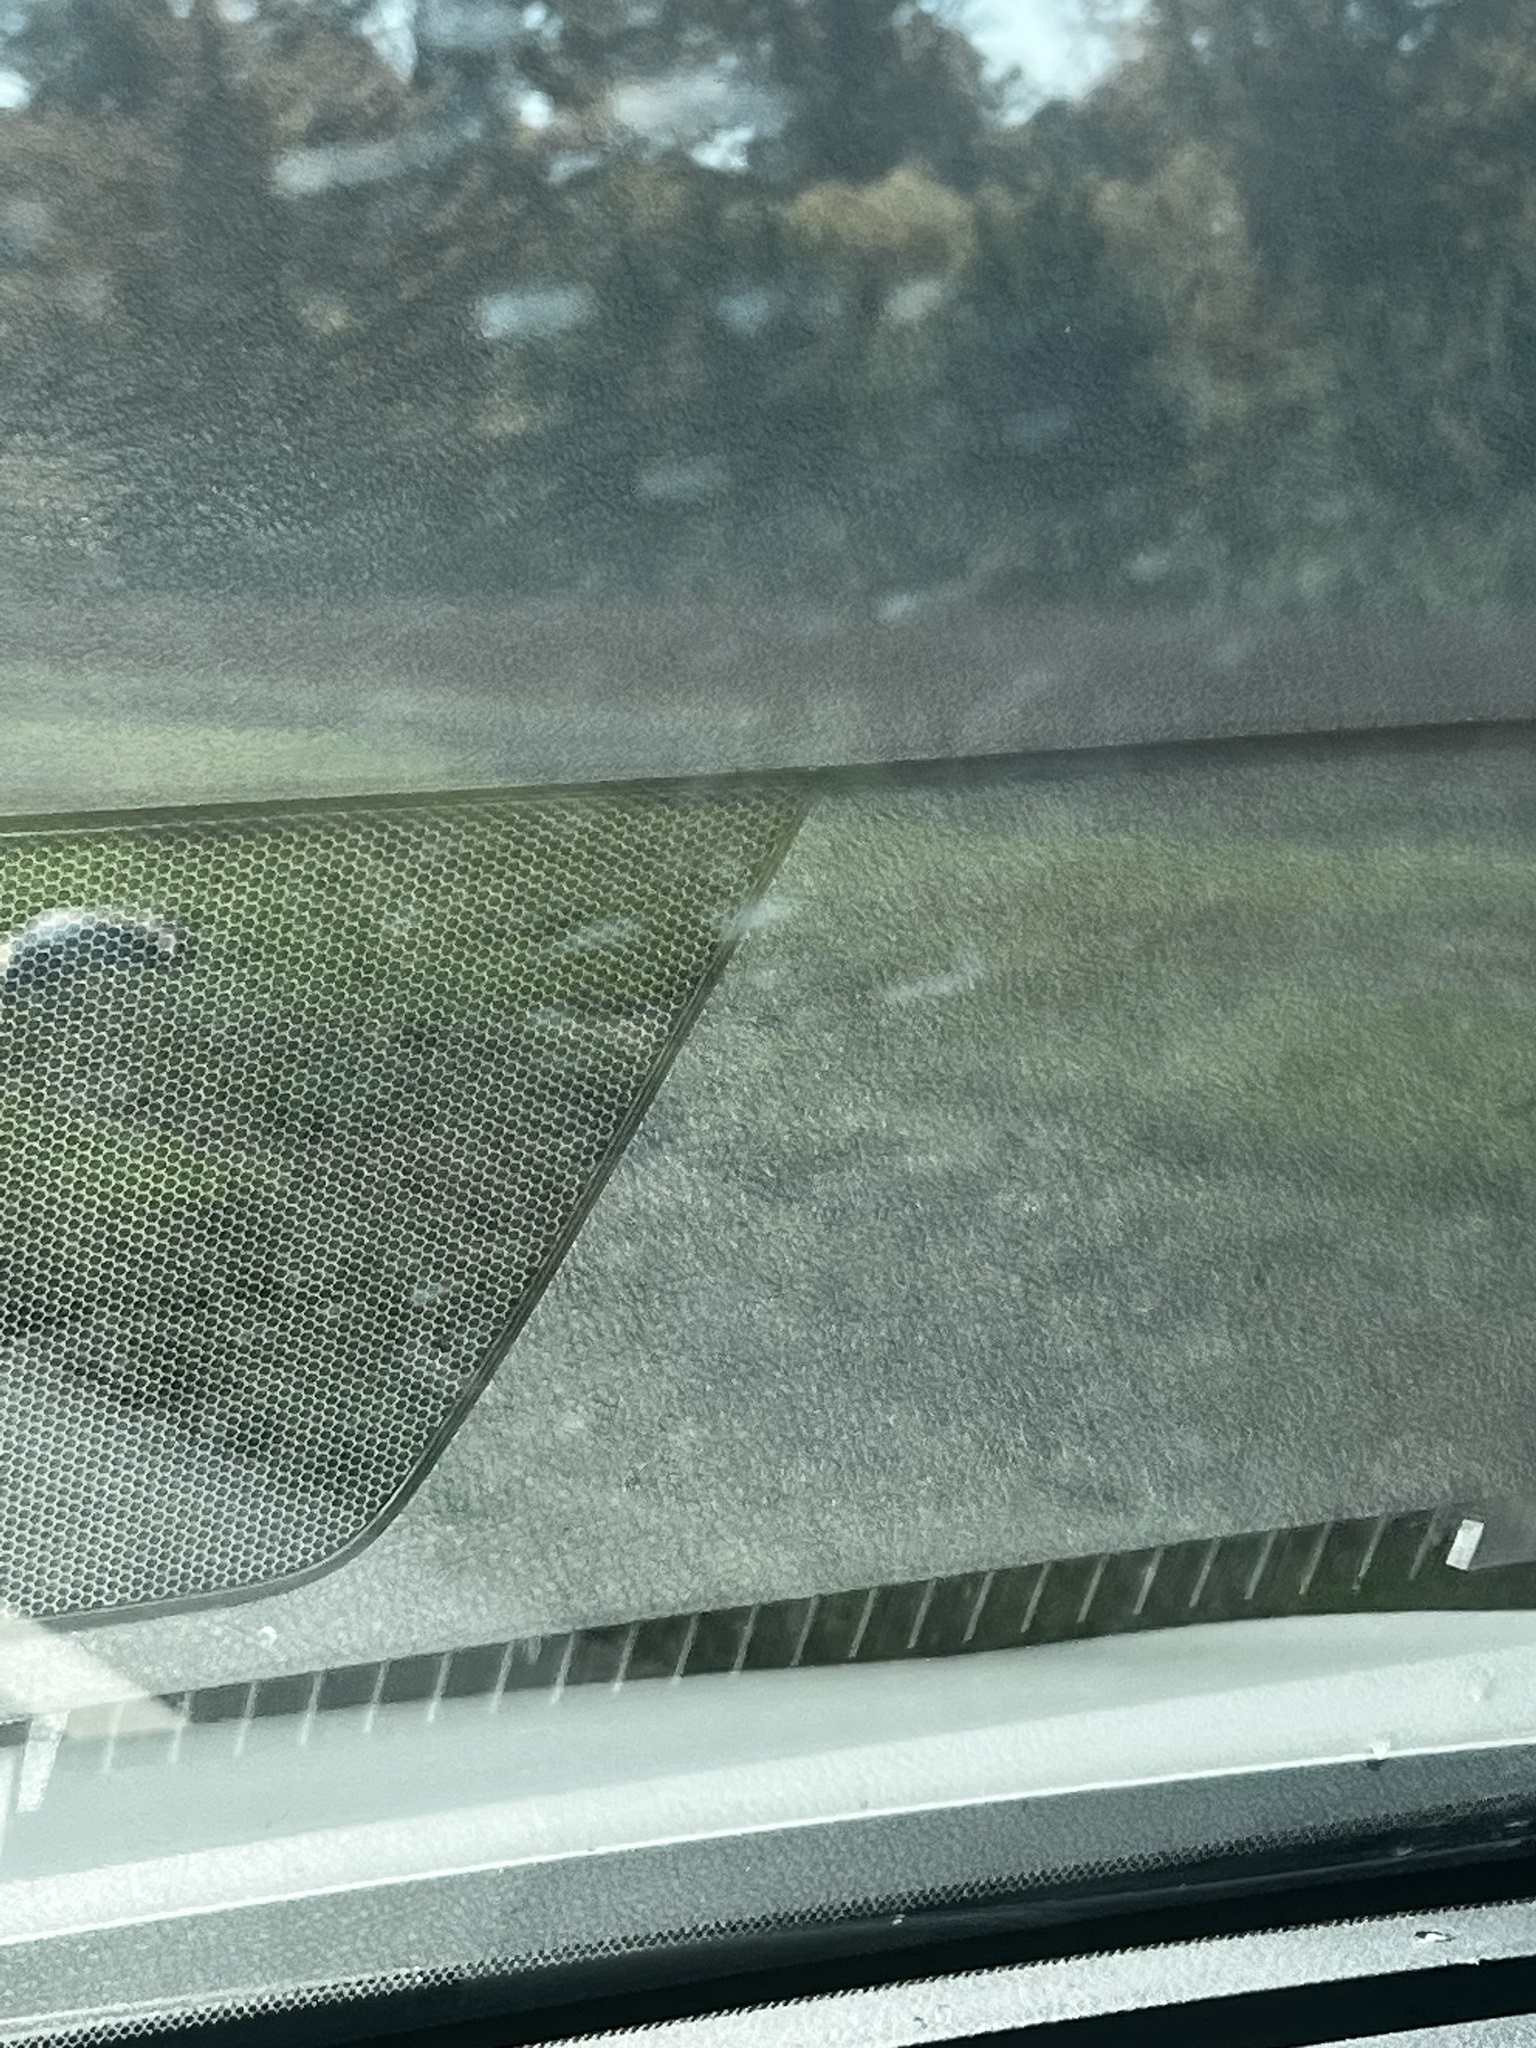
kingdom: Animalia
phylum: Chordata
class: Mammalia
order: Artiodactyla
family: Cervidae
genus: Odocoileus
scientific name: Odocoileus virginianus
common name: White-tailed deer
